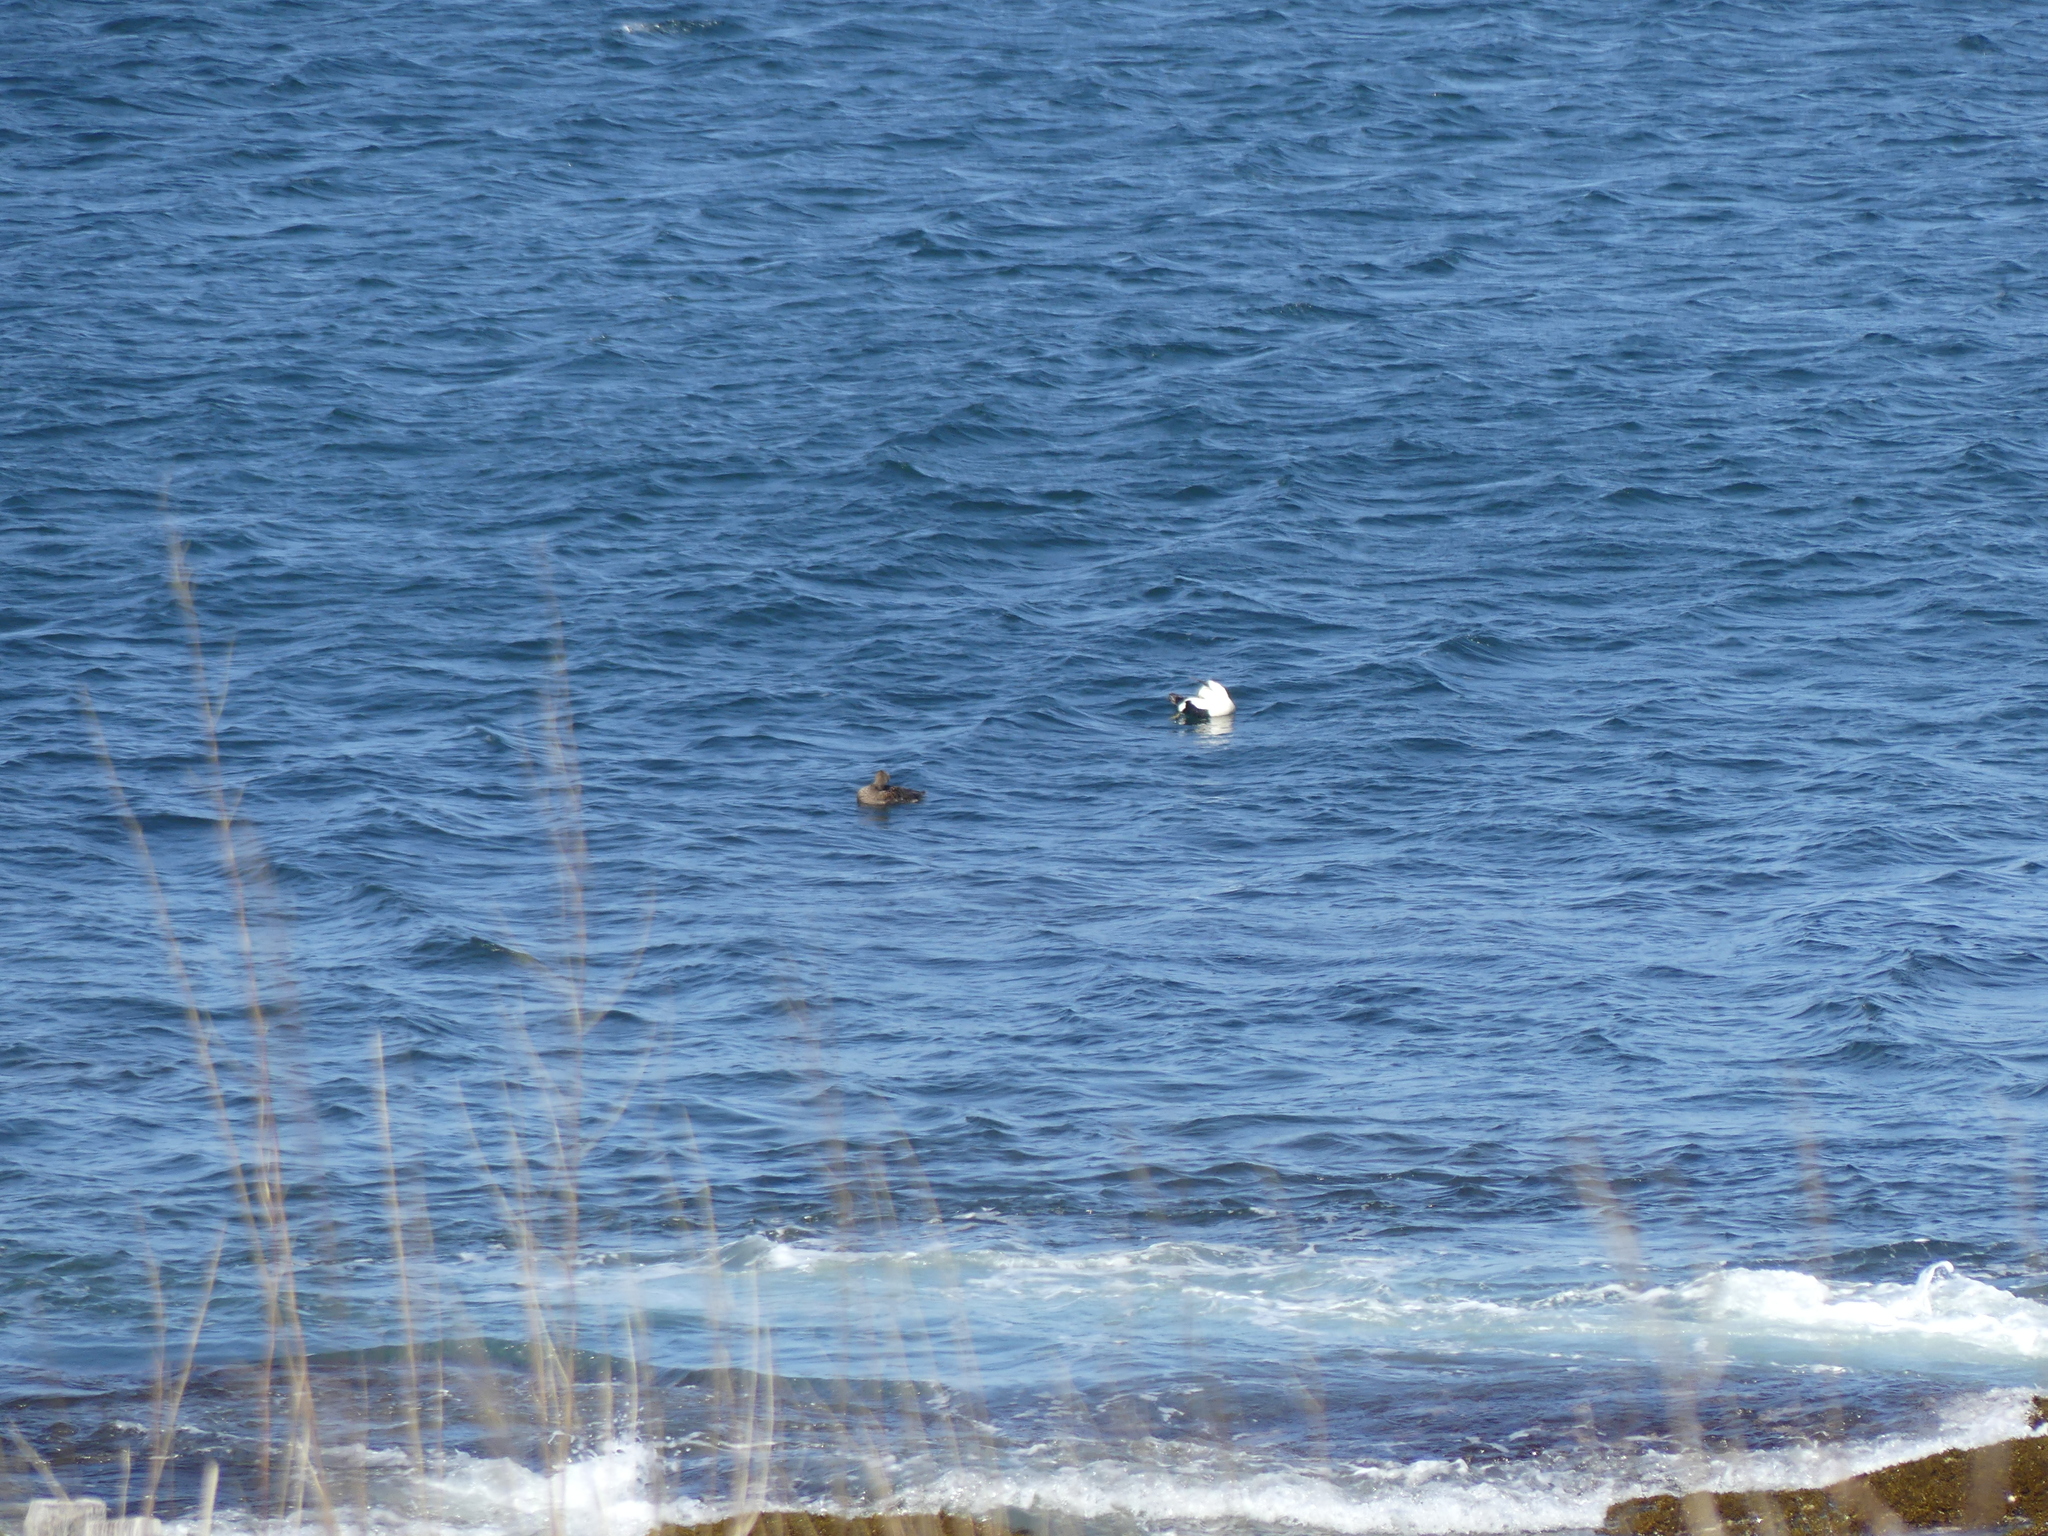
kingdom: Animalia
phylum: Chordata
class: Aves
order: Anseriformes
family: Anatidae
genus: Somateria
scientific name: Somateria mollissima
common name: Common eider
